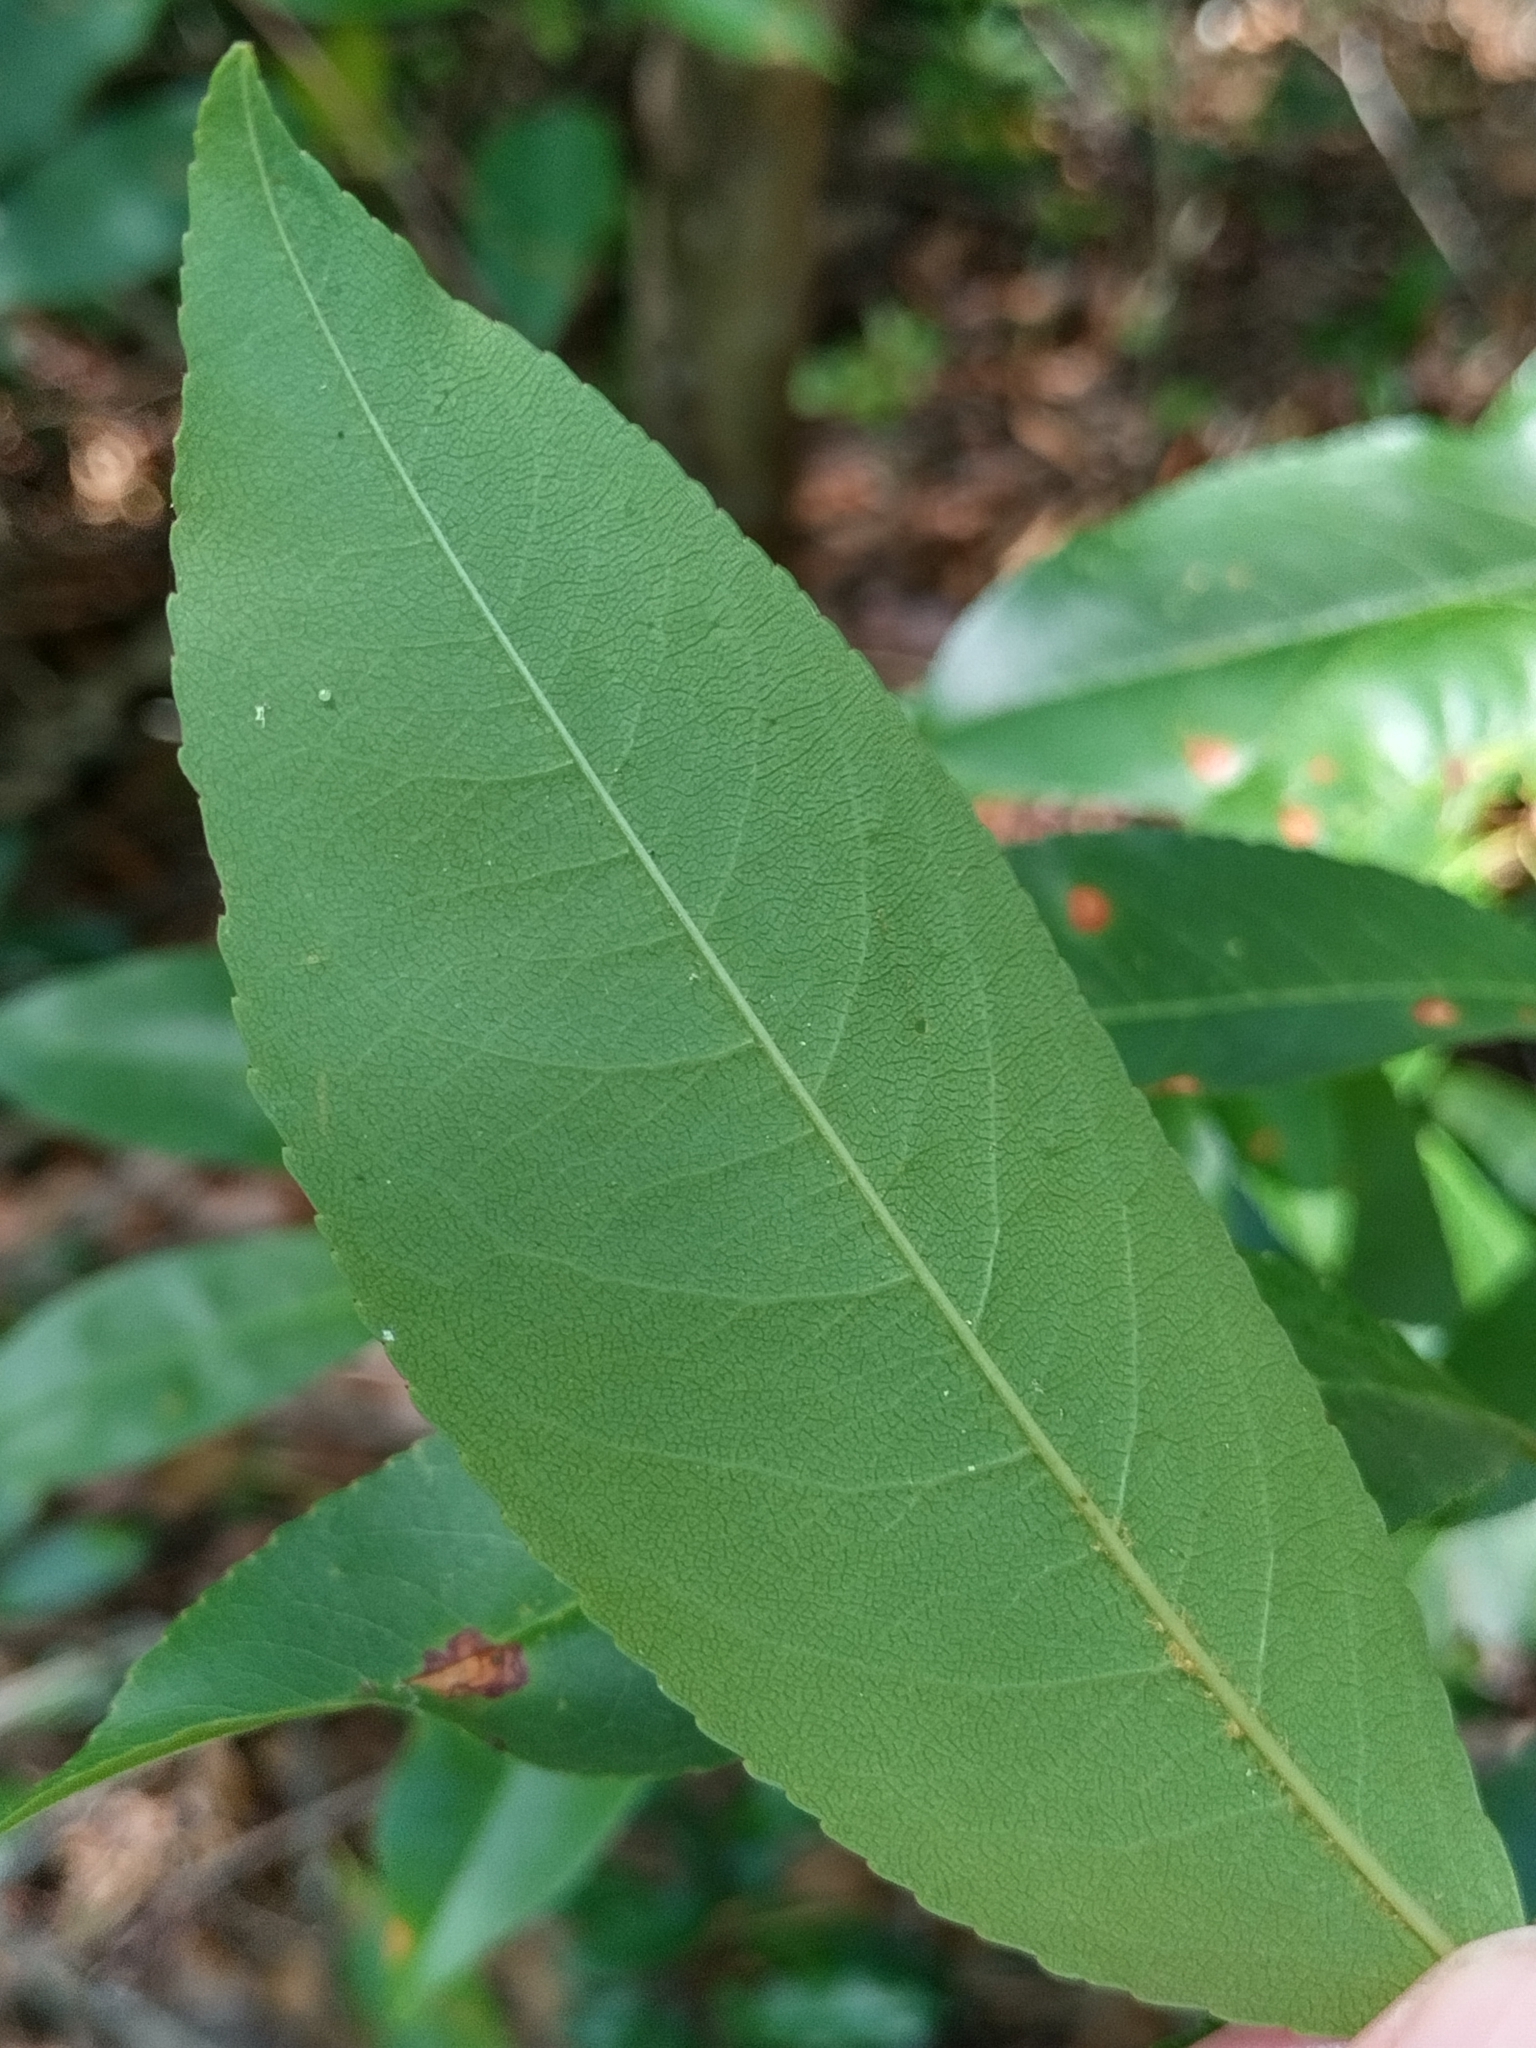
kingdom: Plantae
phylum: Tracheophyta
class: Magnoliopsida
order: Rosales
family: Rosaceae
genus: Prunus
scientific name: Prunus serotina
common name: Black cherry
